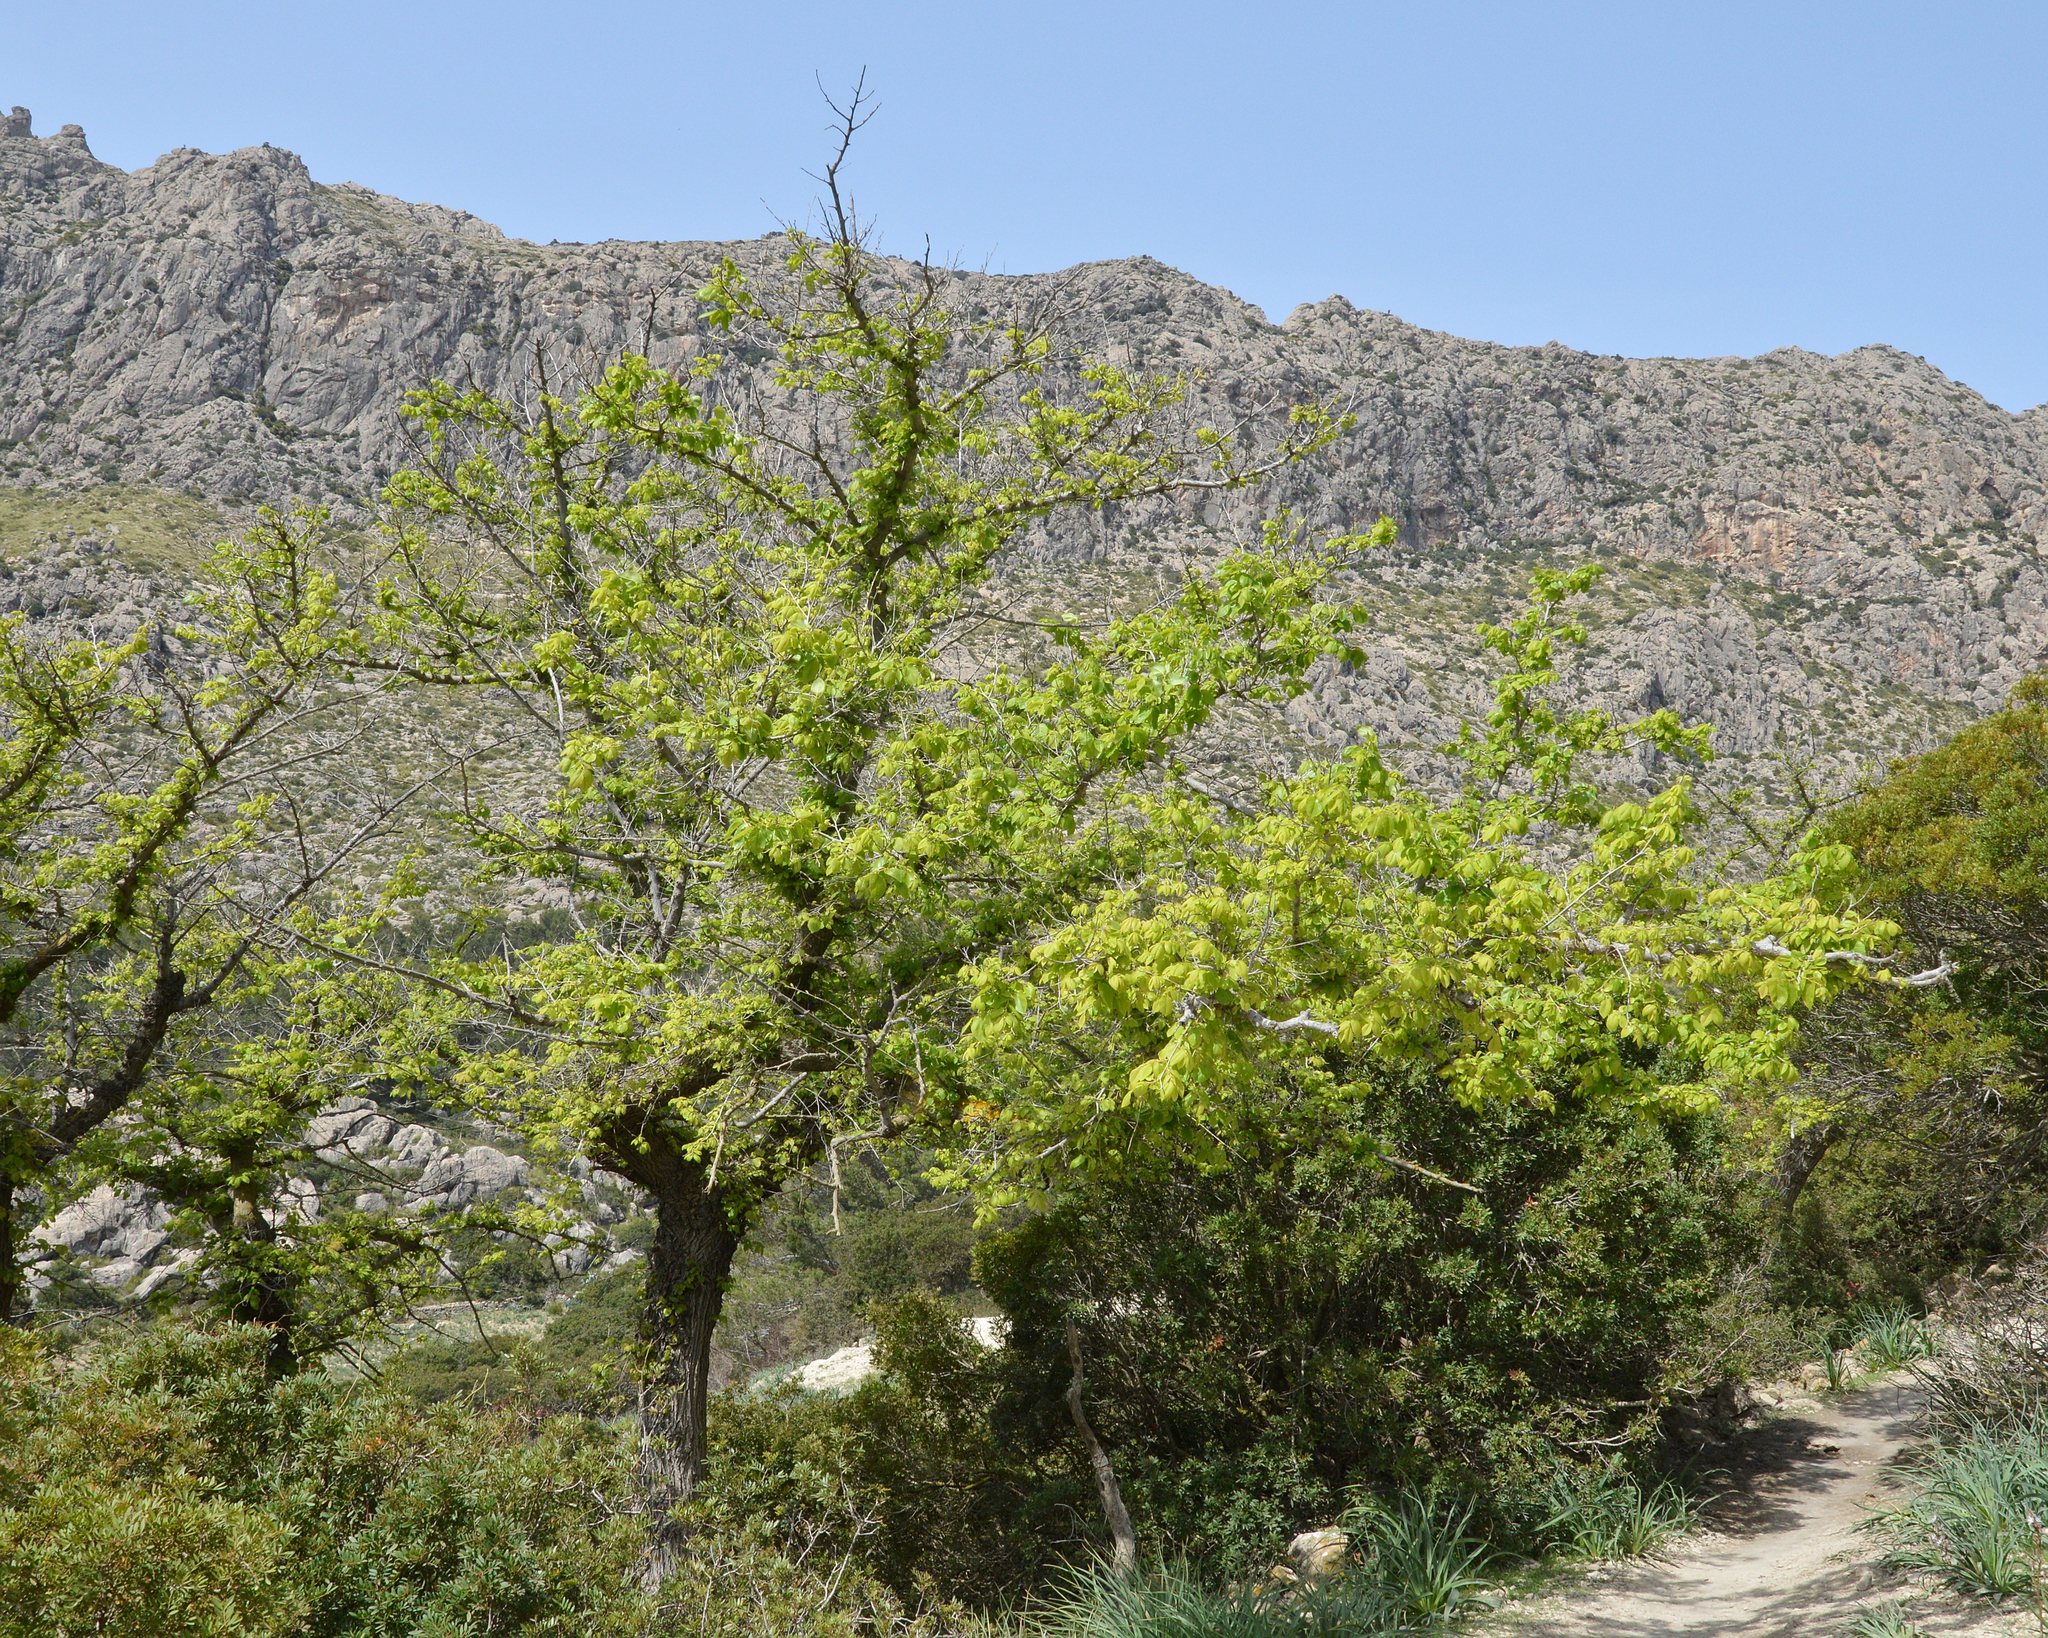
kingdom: Plantae
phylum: Tracheophyta
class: Magnoliopsida
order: Rosales
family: Ulmaceae
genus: Ulmus
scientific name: Ulmus minor
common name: Small-leaved elm
